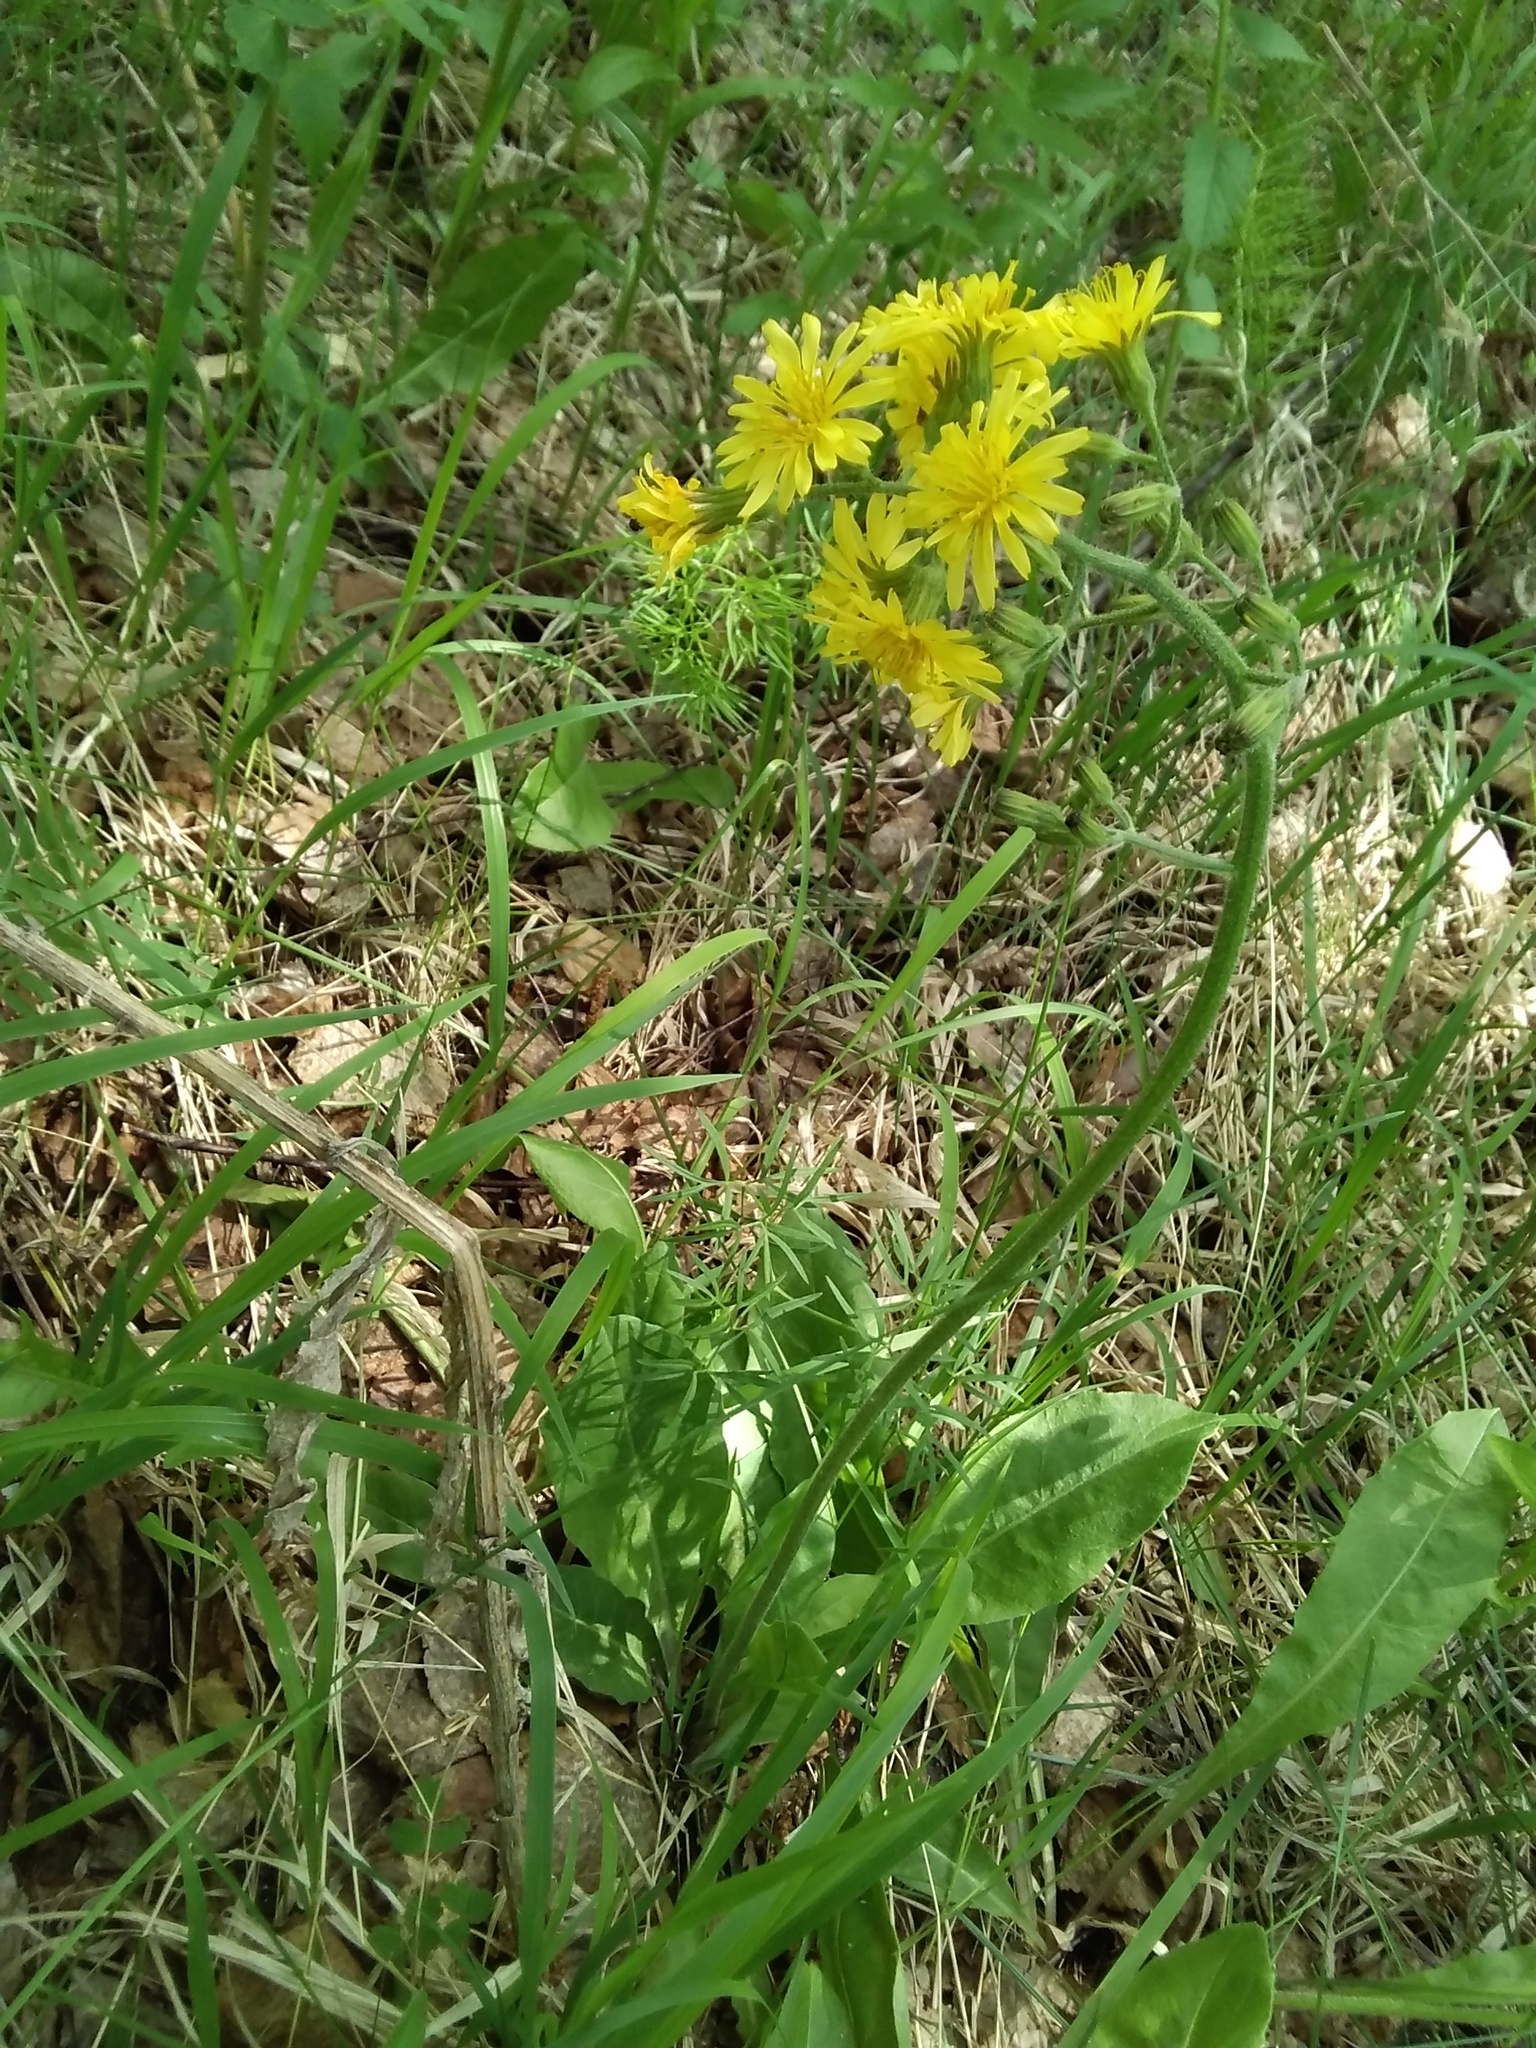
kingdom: Plantae
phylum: Tracheophyta
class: Magnoliopsida
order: Asterales
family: Asteraceae
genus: Crepis
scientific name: Crepis praemorsa
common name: Leafless hawk's-beard
